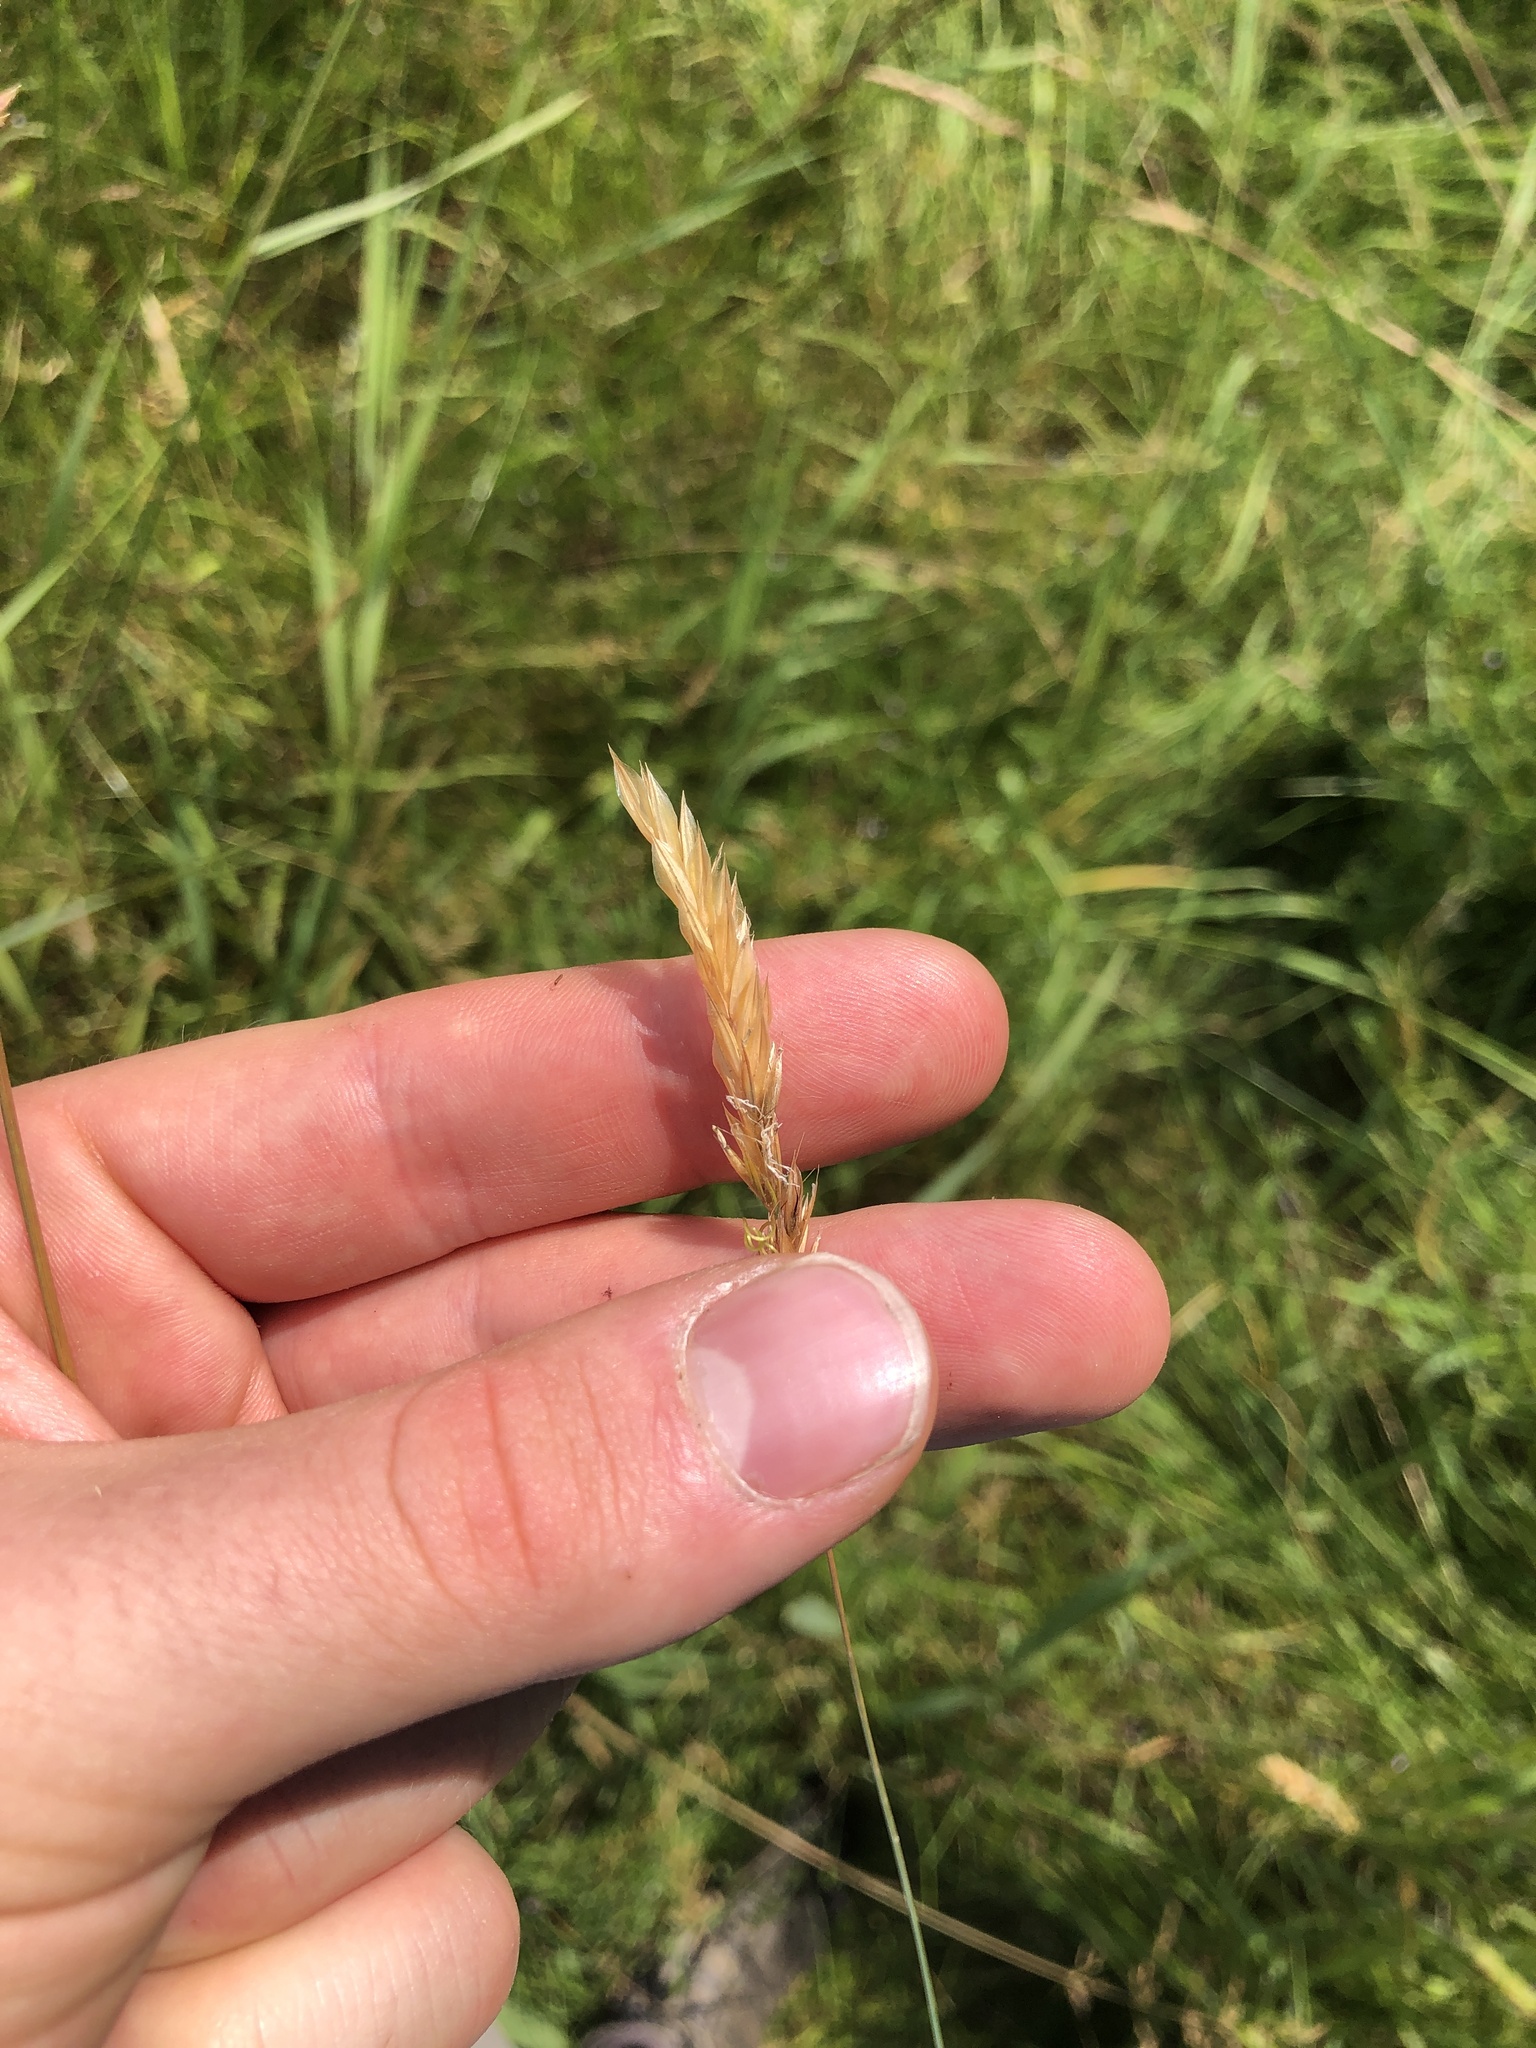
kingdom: Plantae
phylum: Tracheophyta
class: Liliopsida
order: Poales
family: Poaceae
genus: Anthoxanthum
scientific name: Anthoxanthum odoratum
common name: Sweet vernalgrass
